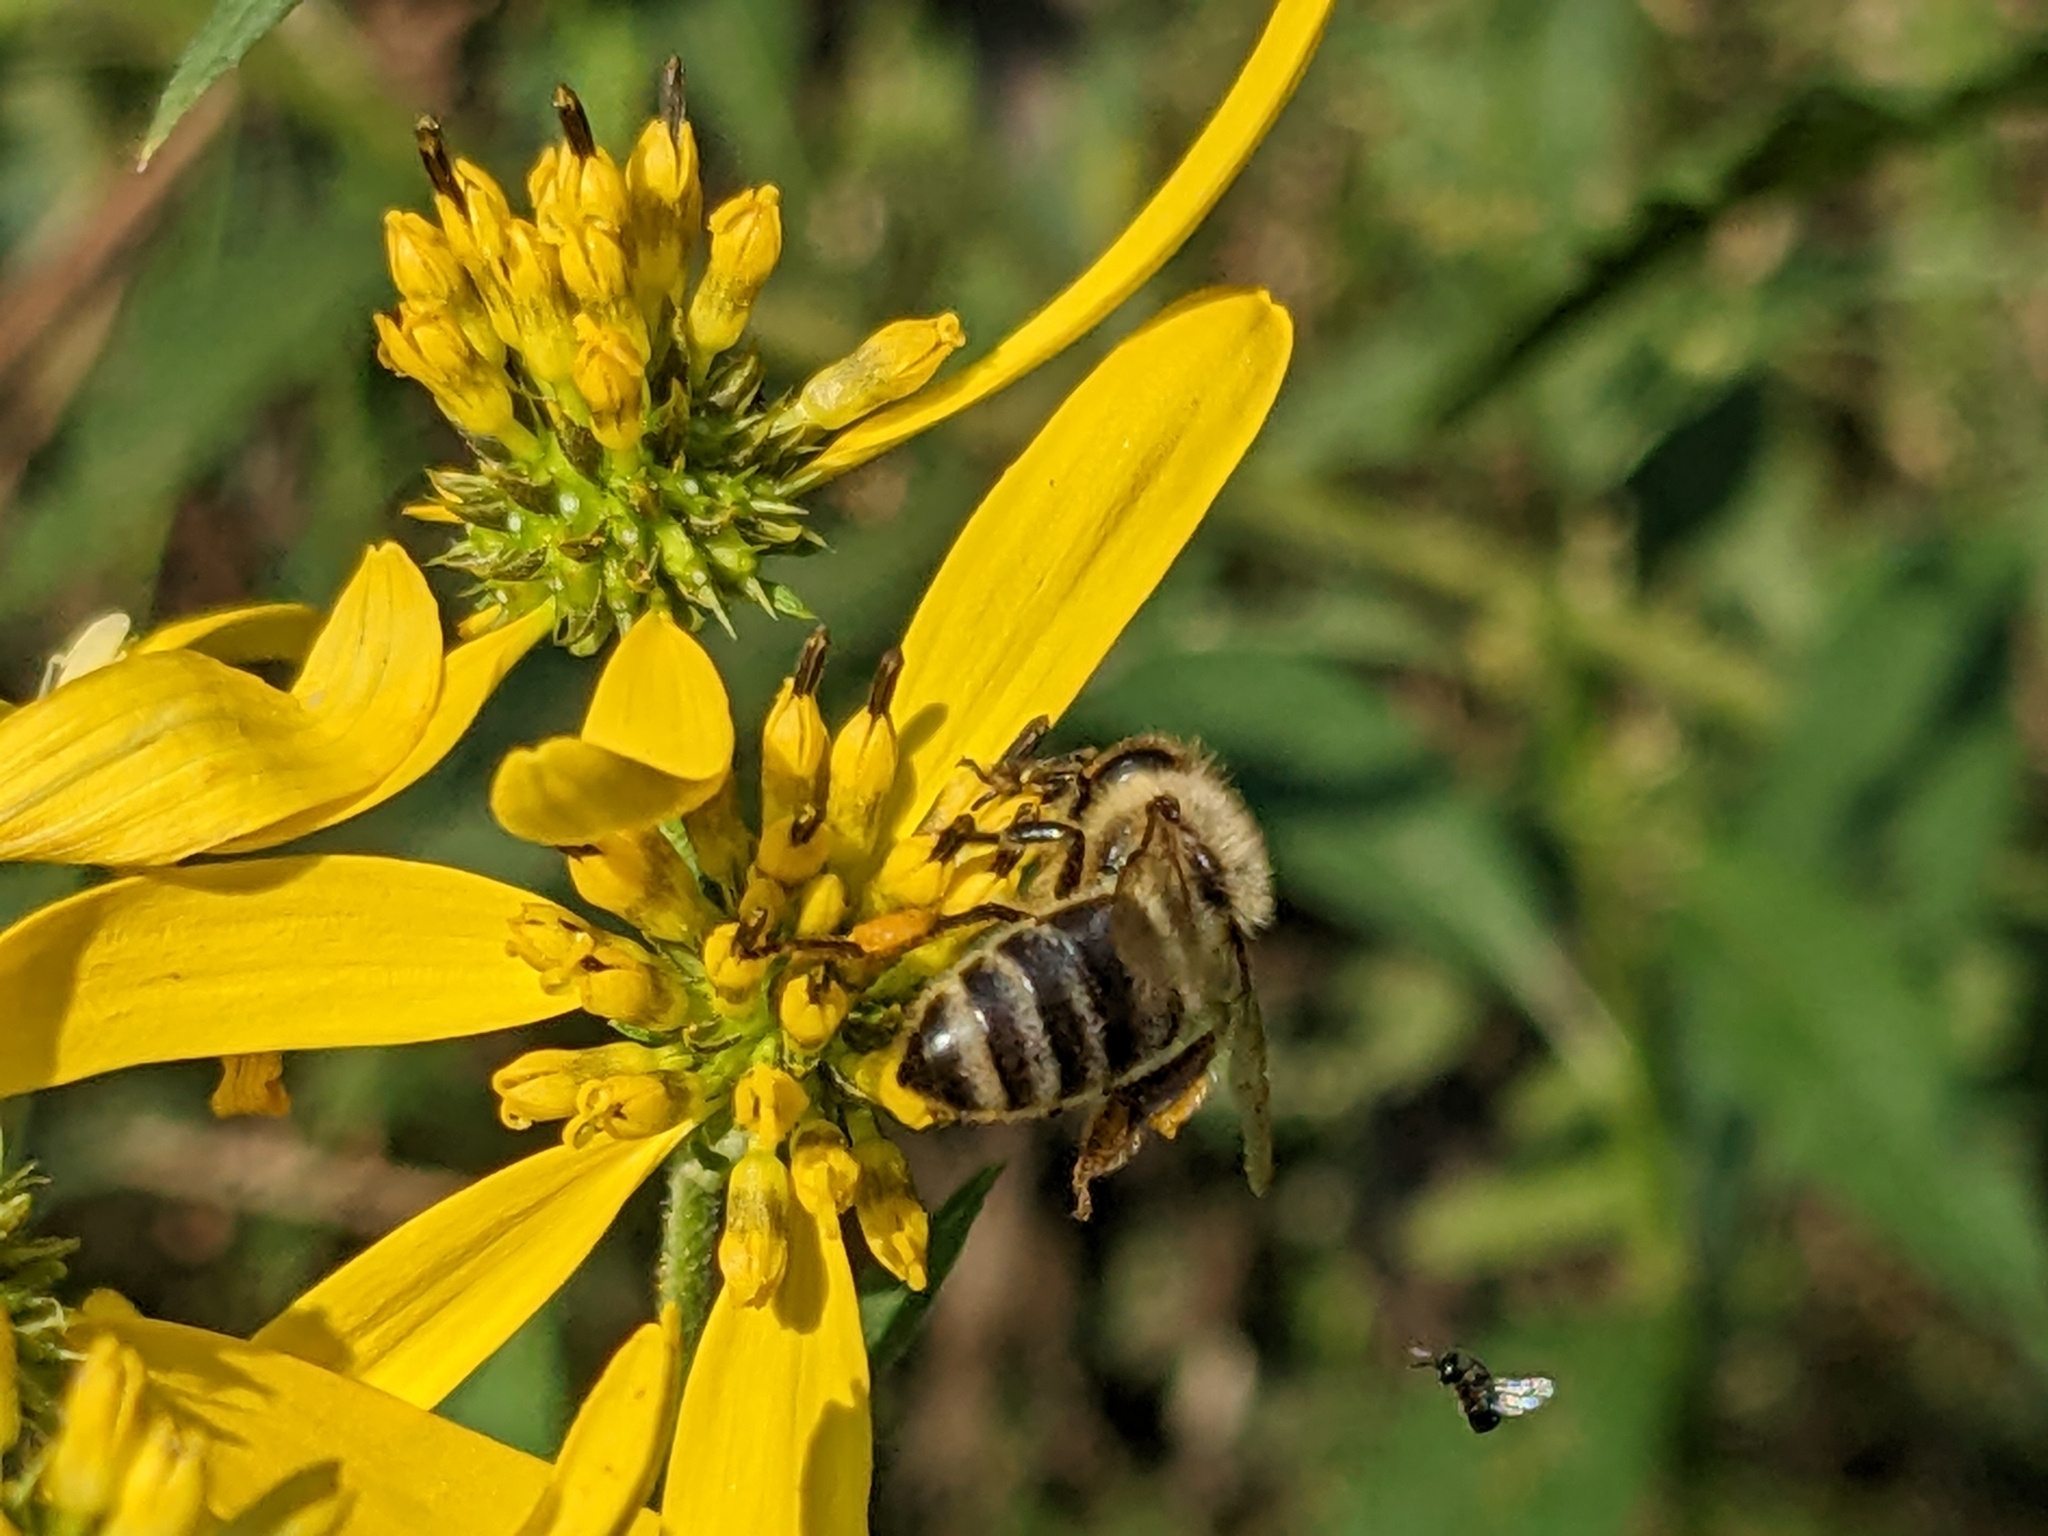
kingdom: Animalia
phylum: Arthropoda
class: Insecta
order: Hymenoptera
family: Apidae
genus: Apis
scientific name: Apis mellifera
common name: Honey bee
